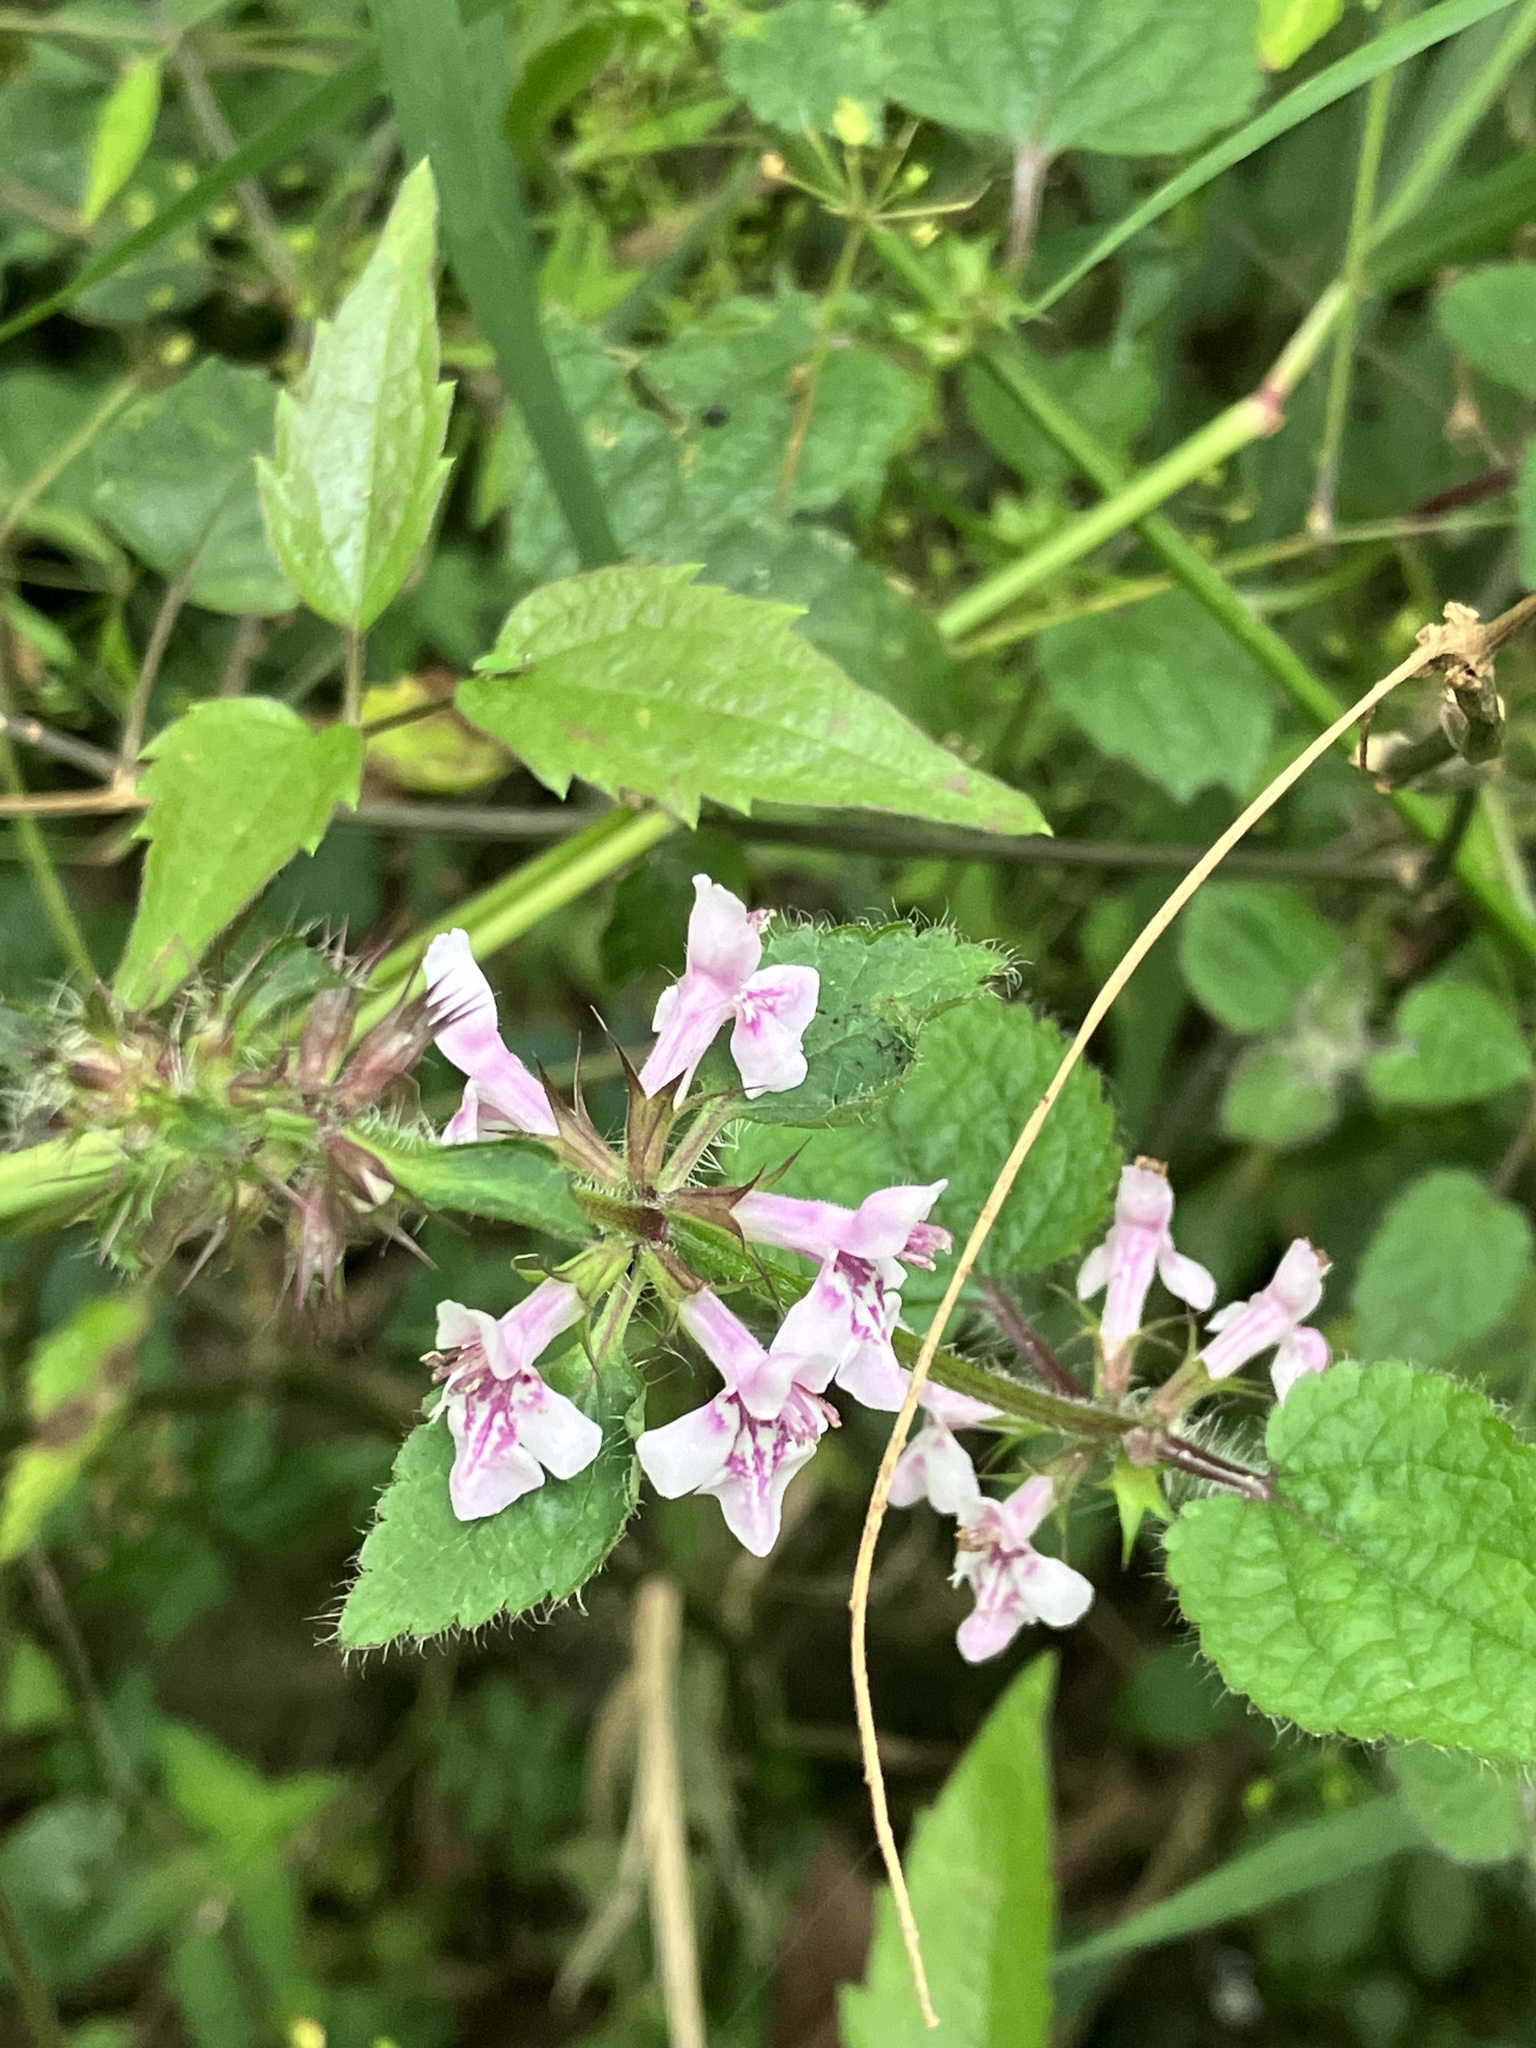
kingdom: Plantae
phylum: Tracheophyta
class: Magnoliopsida
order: Lamiales
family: Lamiaceae
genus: Stachys
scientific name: Stachys boraginoides
